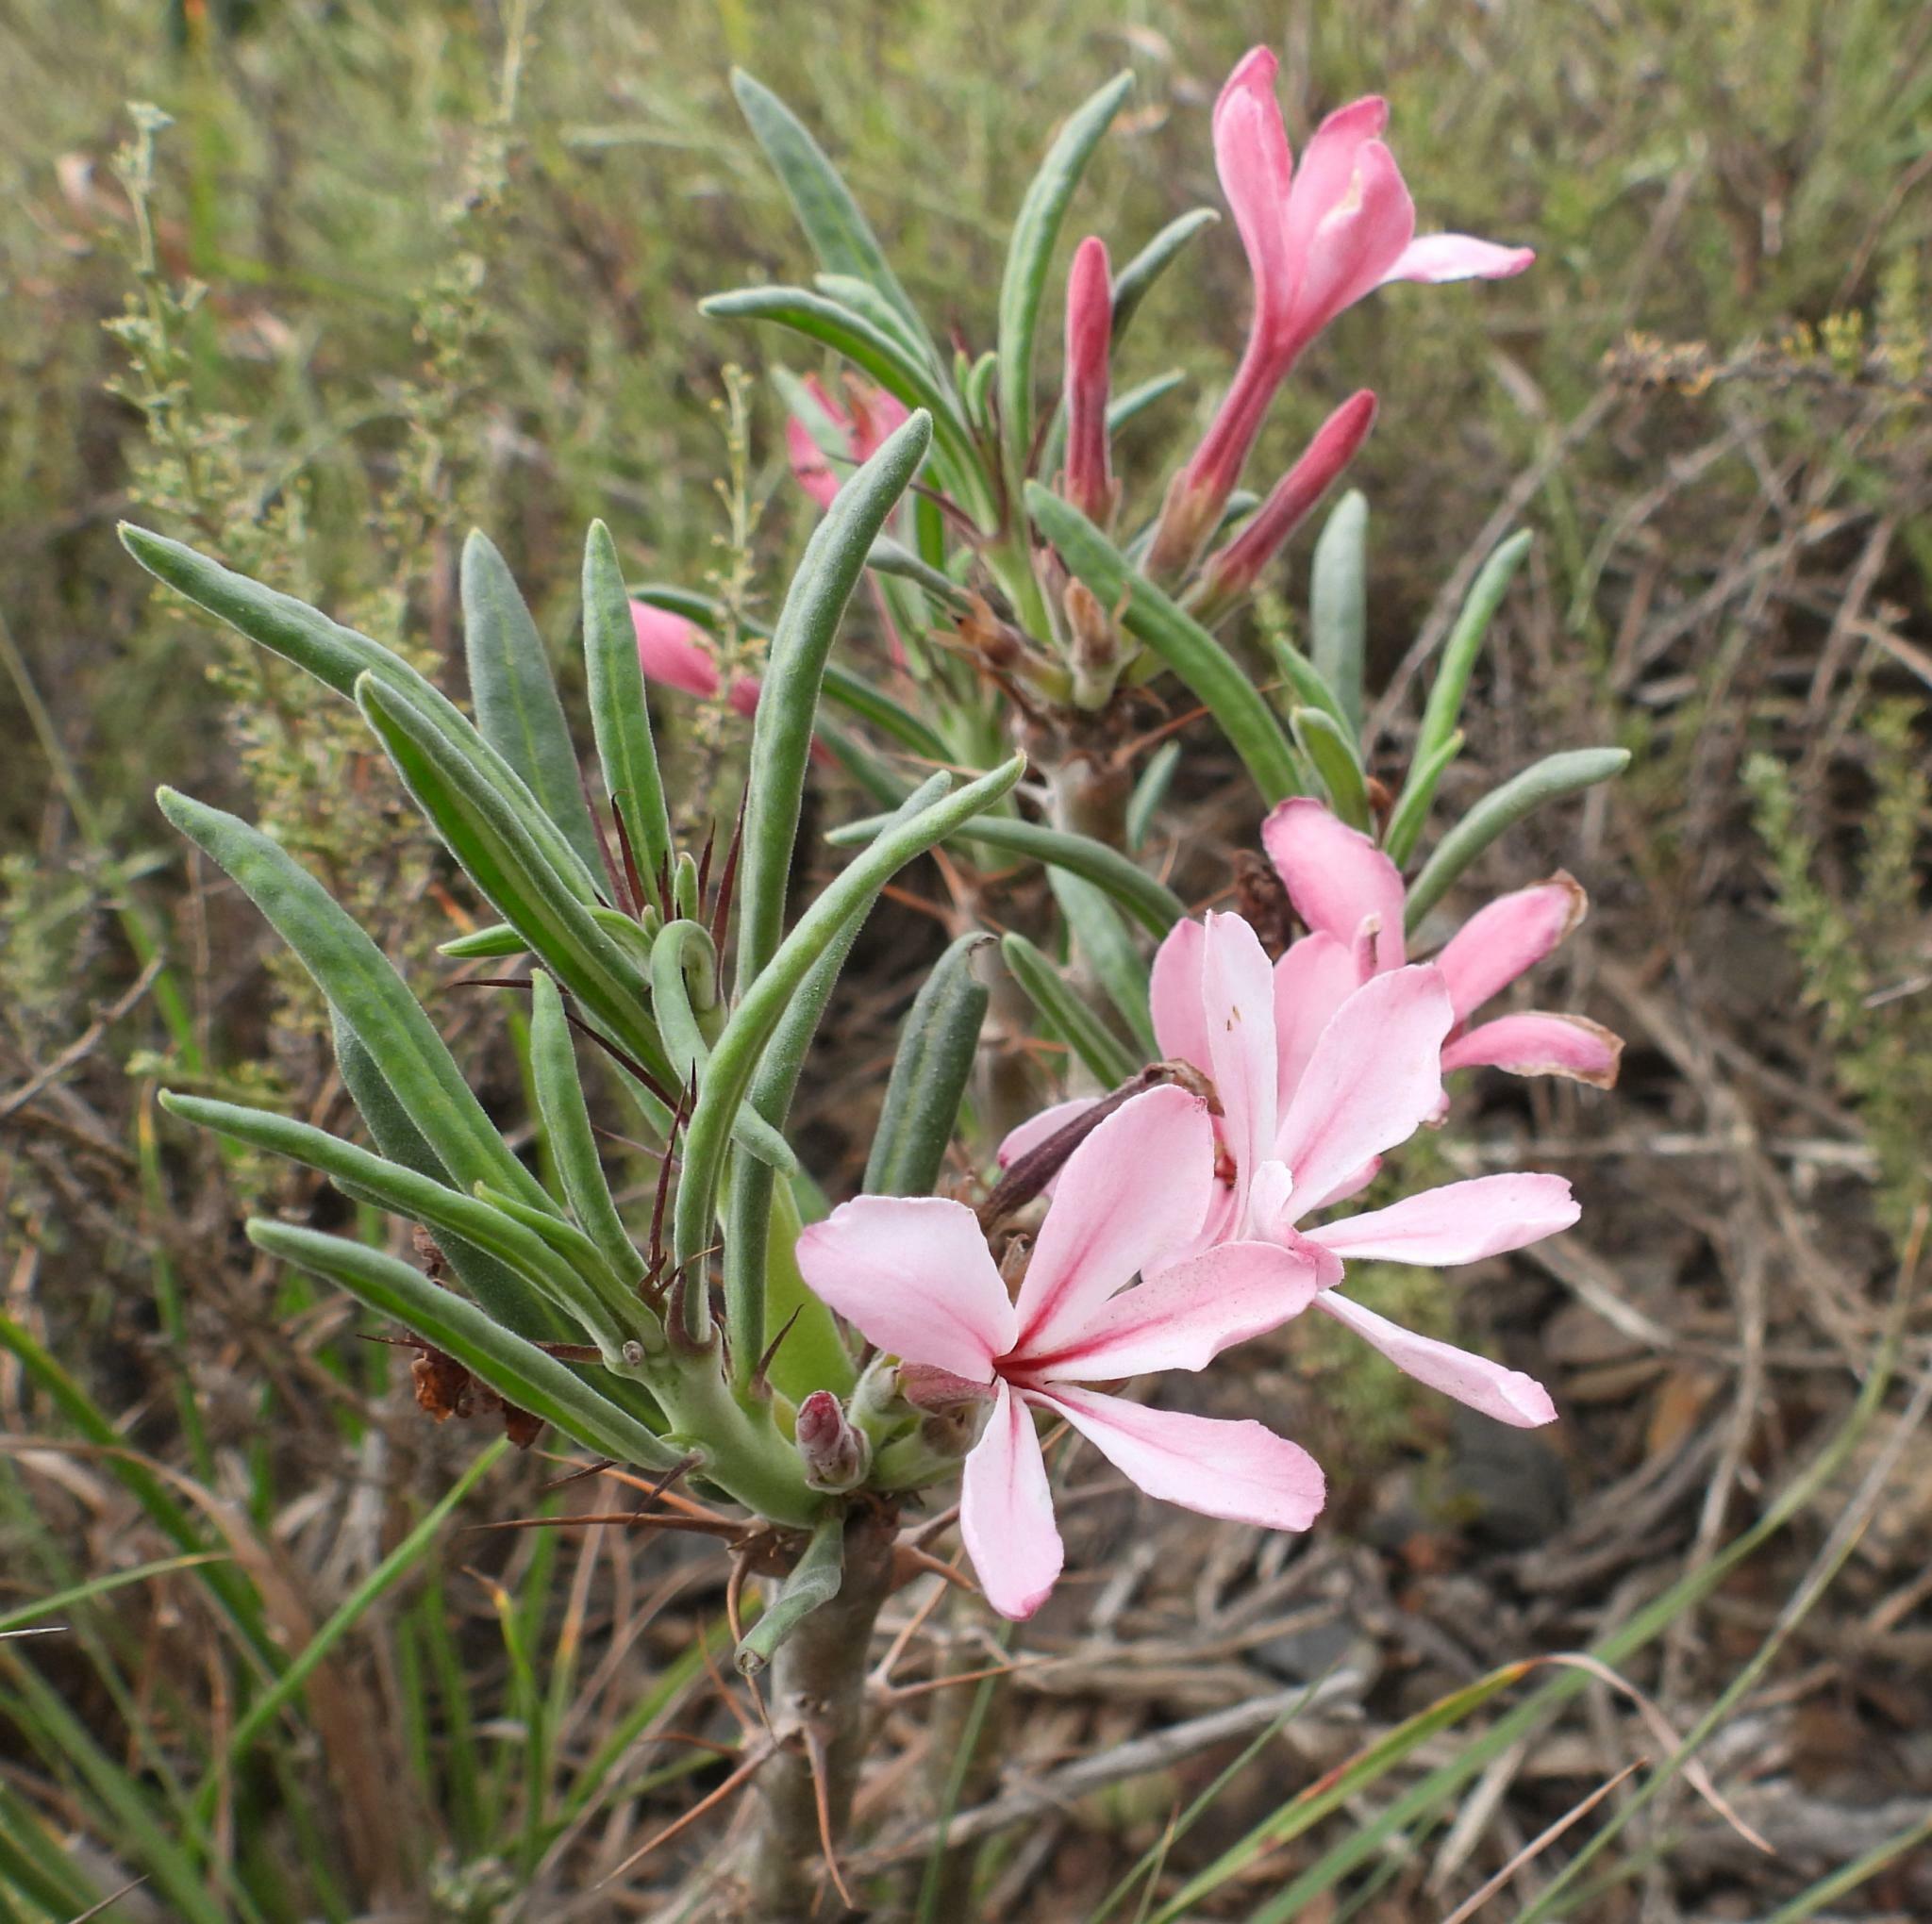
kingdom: Plantae
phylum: Tracheophyta
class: Magnoliopsida
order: Gentianales
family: Apocynaceae
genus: Pachypodium
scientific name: Pachypodium succulentum
